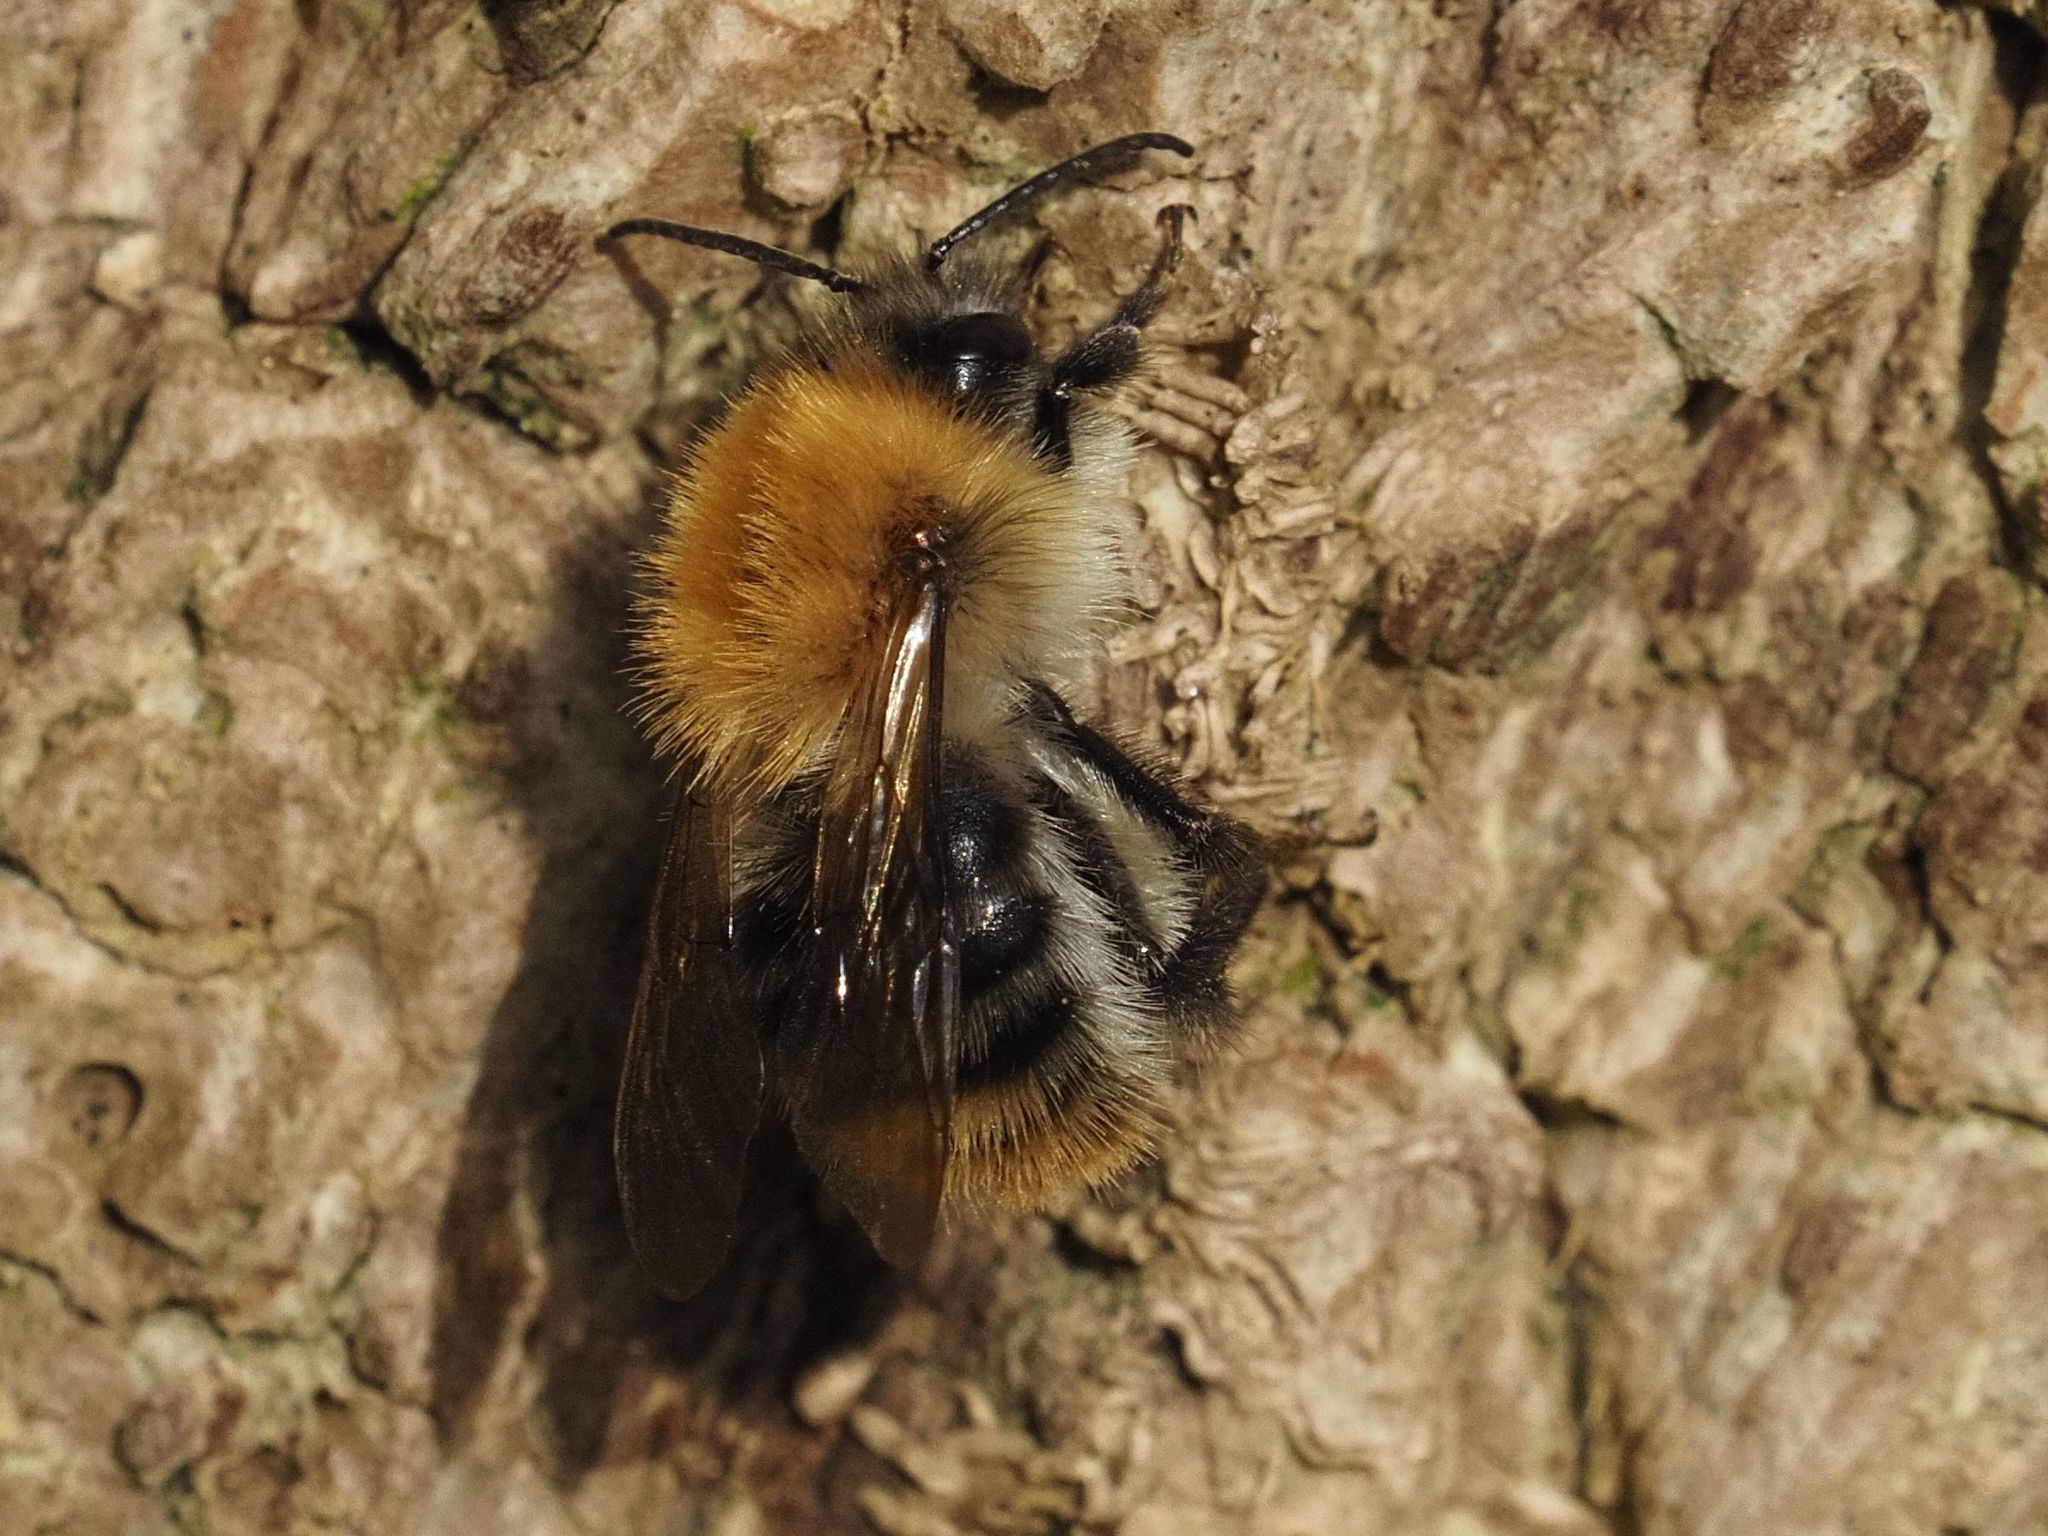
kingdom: Animalia
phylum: Arthropoda
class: Insecta
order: Hymenoptera
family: Apidae
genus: Bombus
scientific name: Bombus pascuorum
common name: Common carder bee
